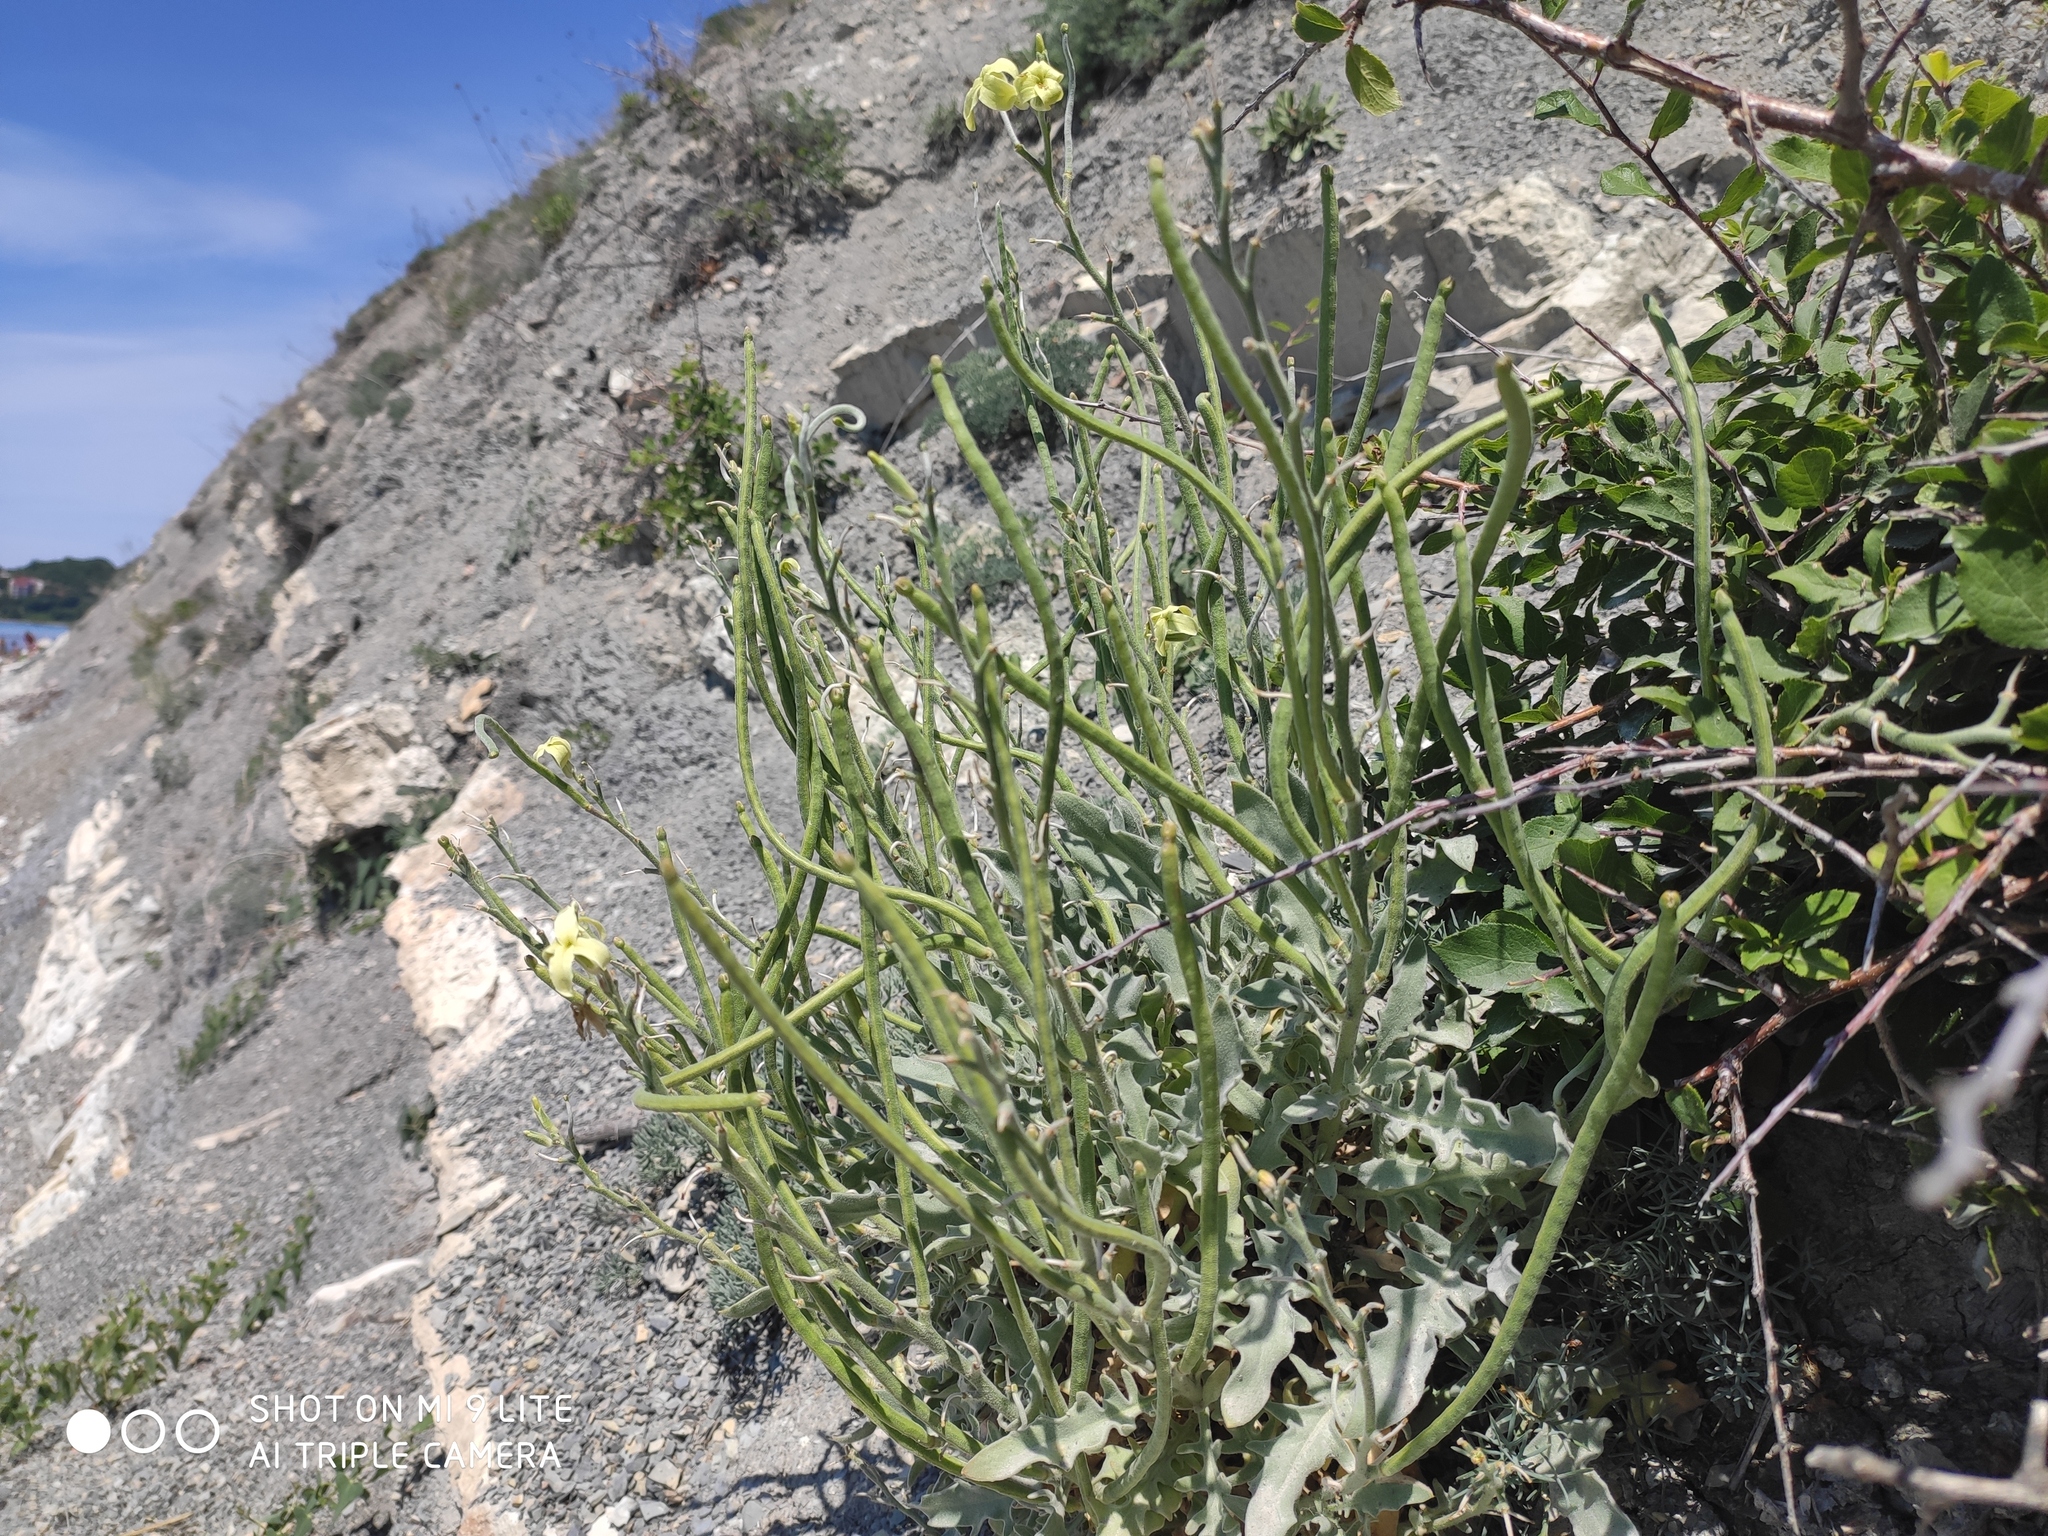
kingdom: Plantae
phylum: Tracheophyta
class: Magnoliopsida
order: Brassicales
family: Brassicaceae
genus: Matthiola
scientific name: Matthiola odoratissima
